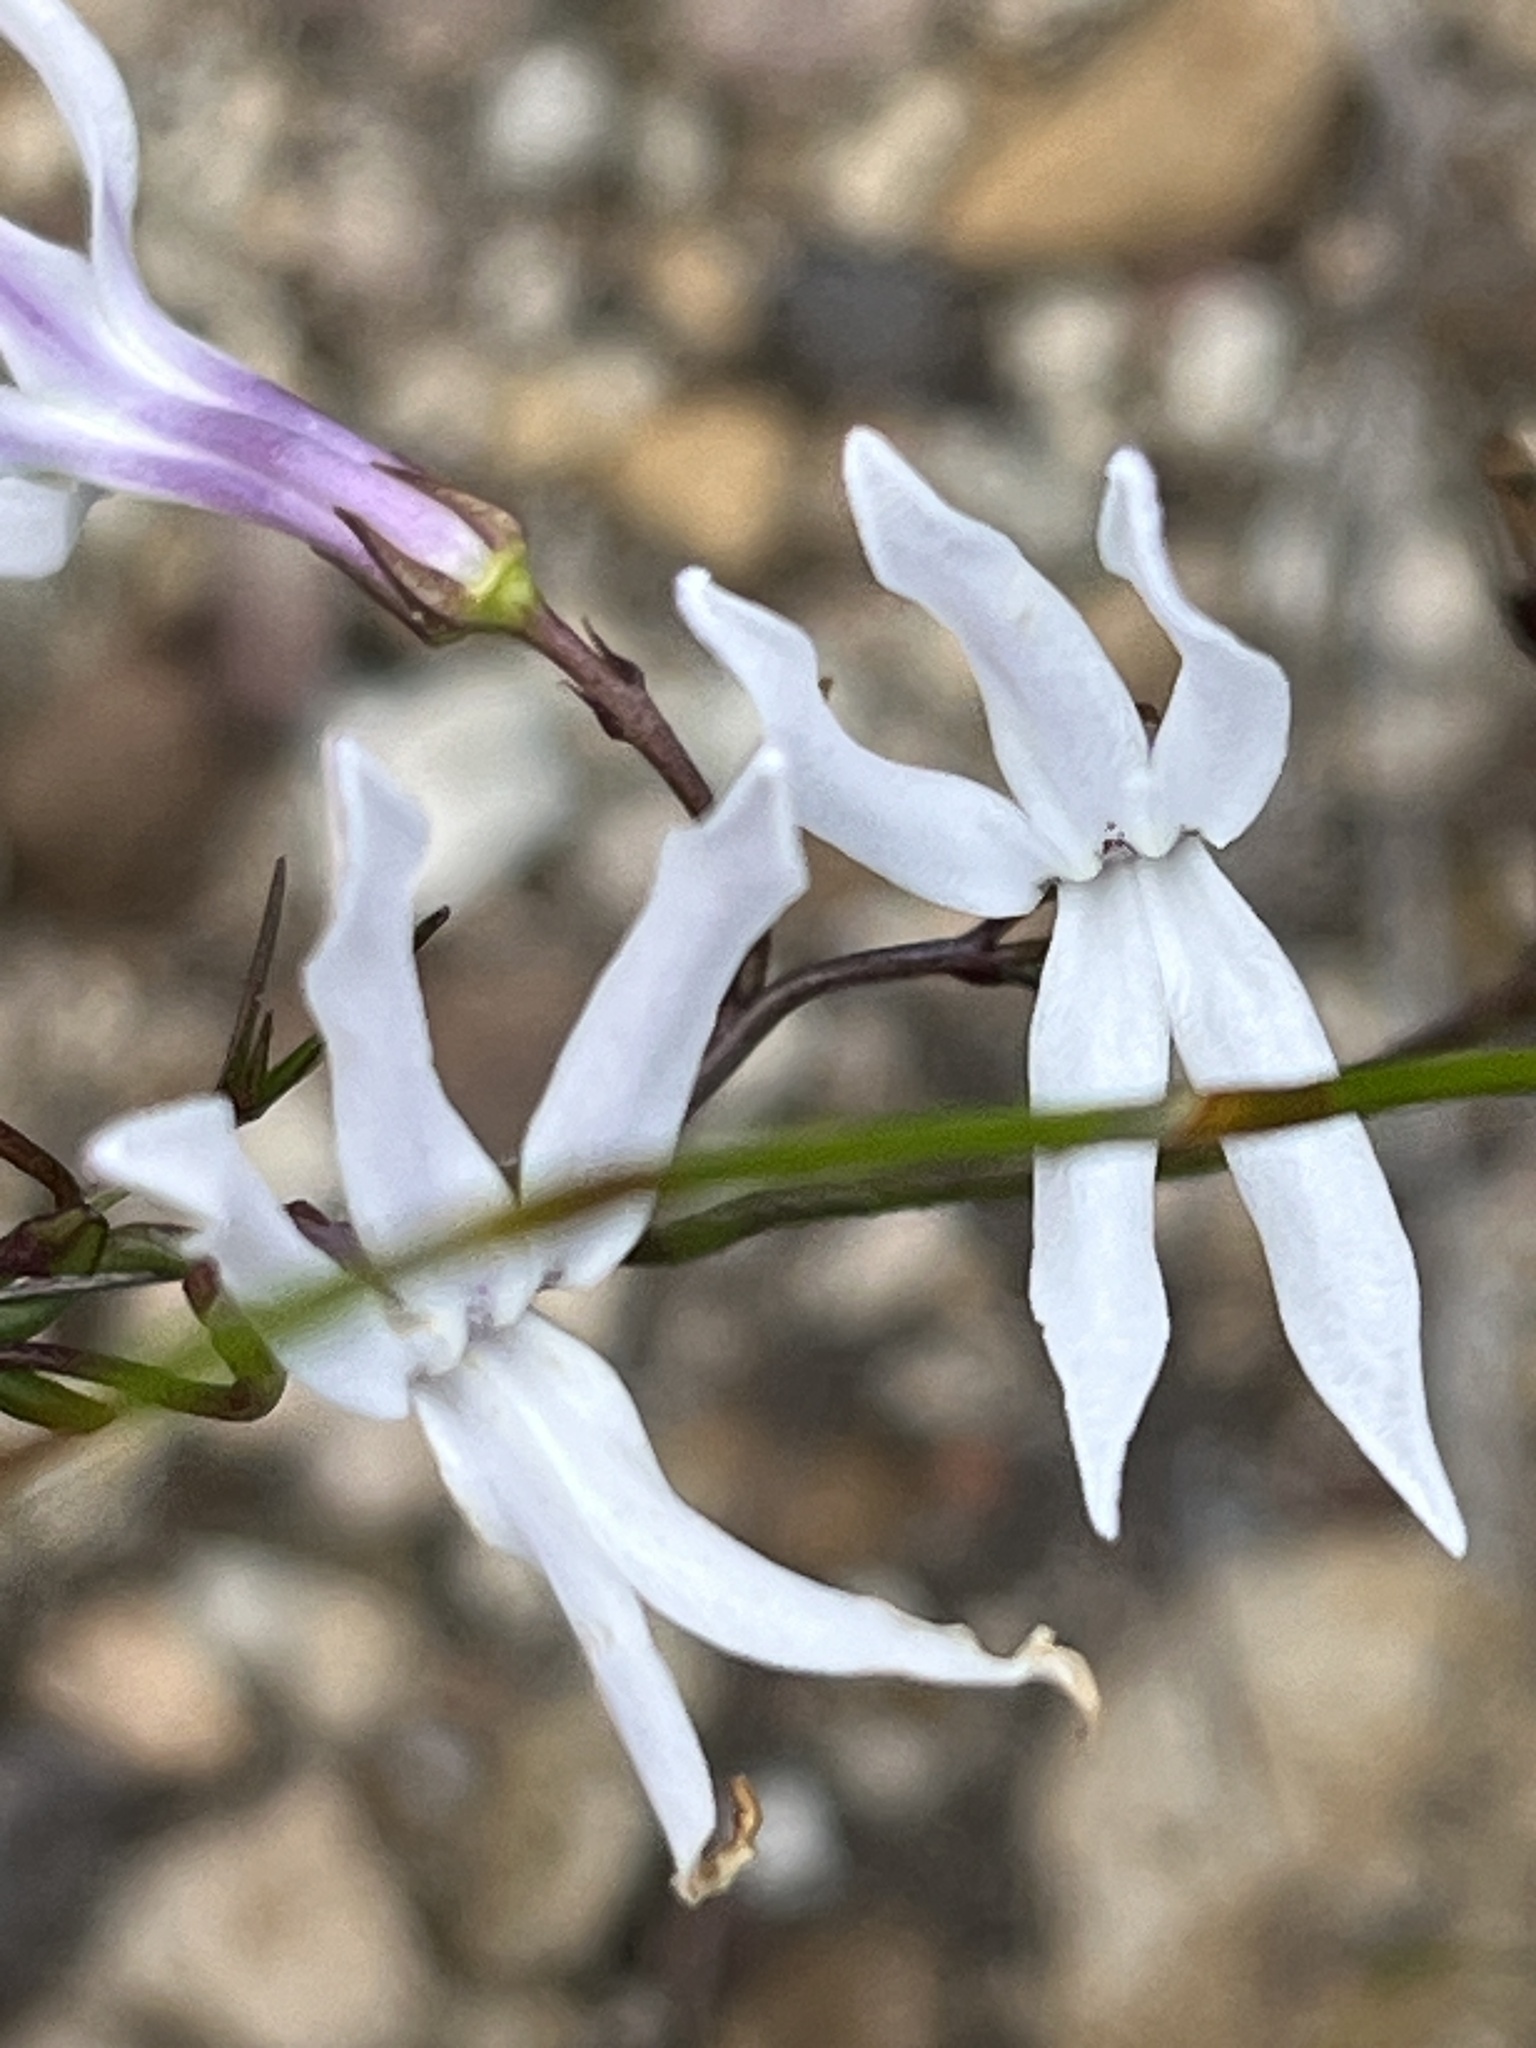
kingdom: Plantae
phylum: Tracheophyta
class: Magnoliopsida
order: Asterales
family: Campanulaceae
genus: Cyphia
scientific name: Cyphia volubilis
